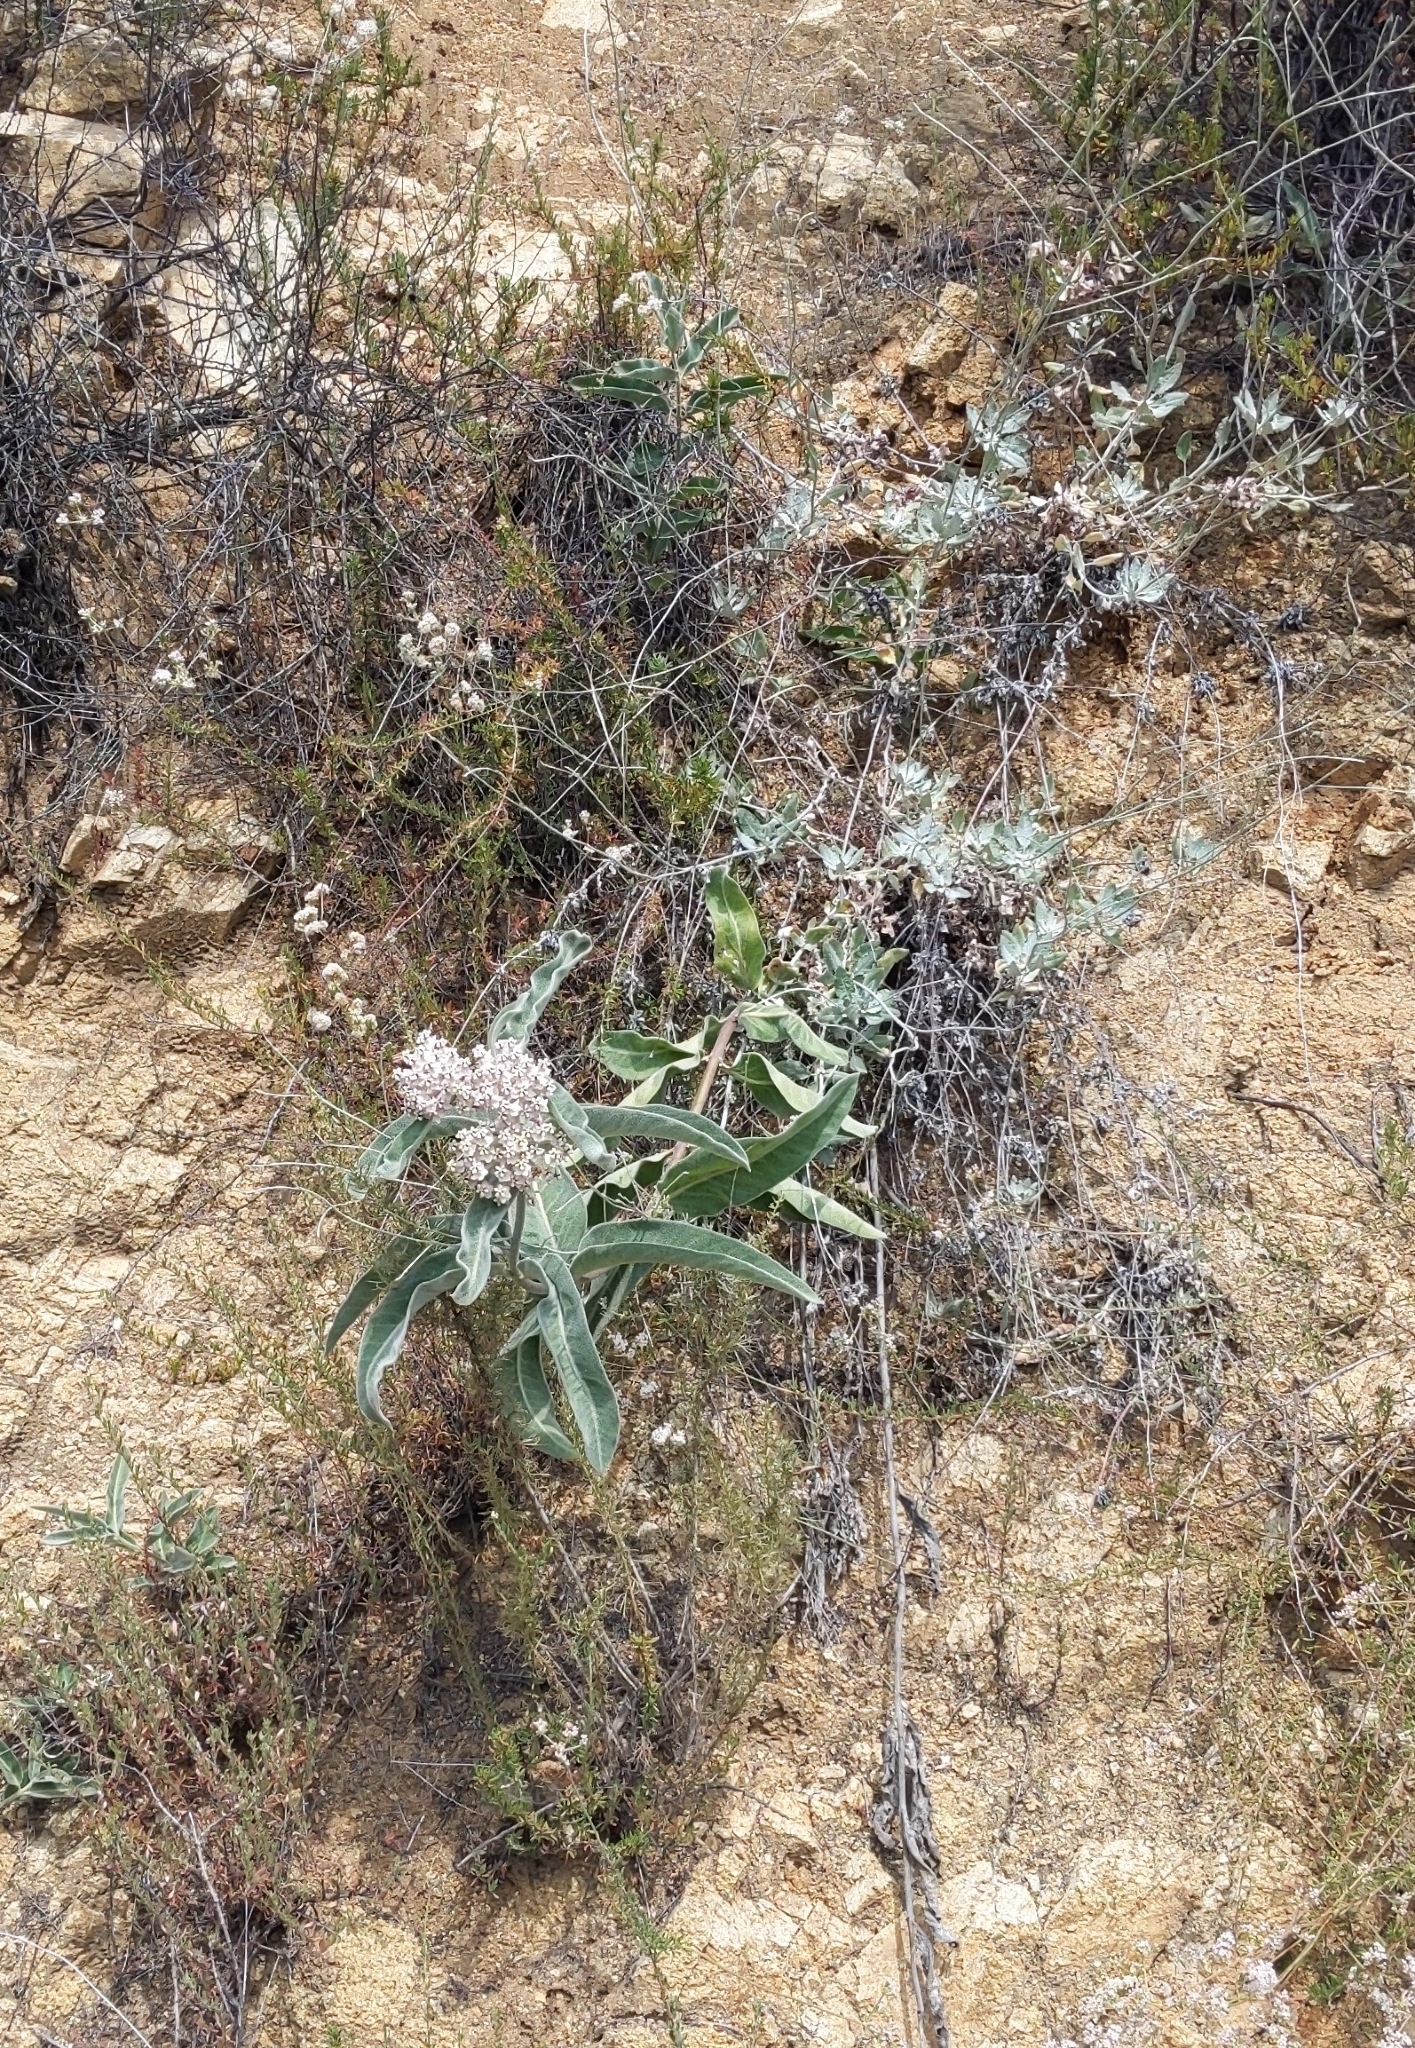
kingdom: Plantae
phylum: Tracheophyta
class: Magnoliopsida
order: Gentianales
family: Apocynaceae
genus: Asclepias
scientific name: Asclepias eriocarpa
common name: Indian milkweed
